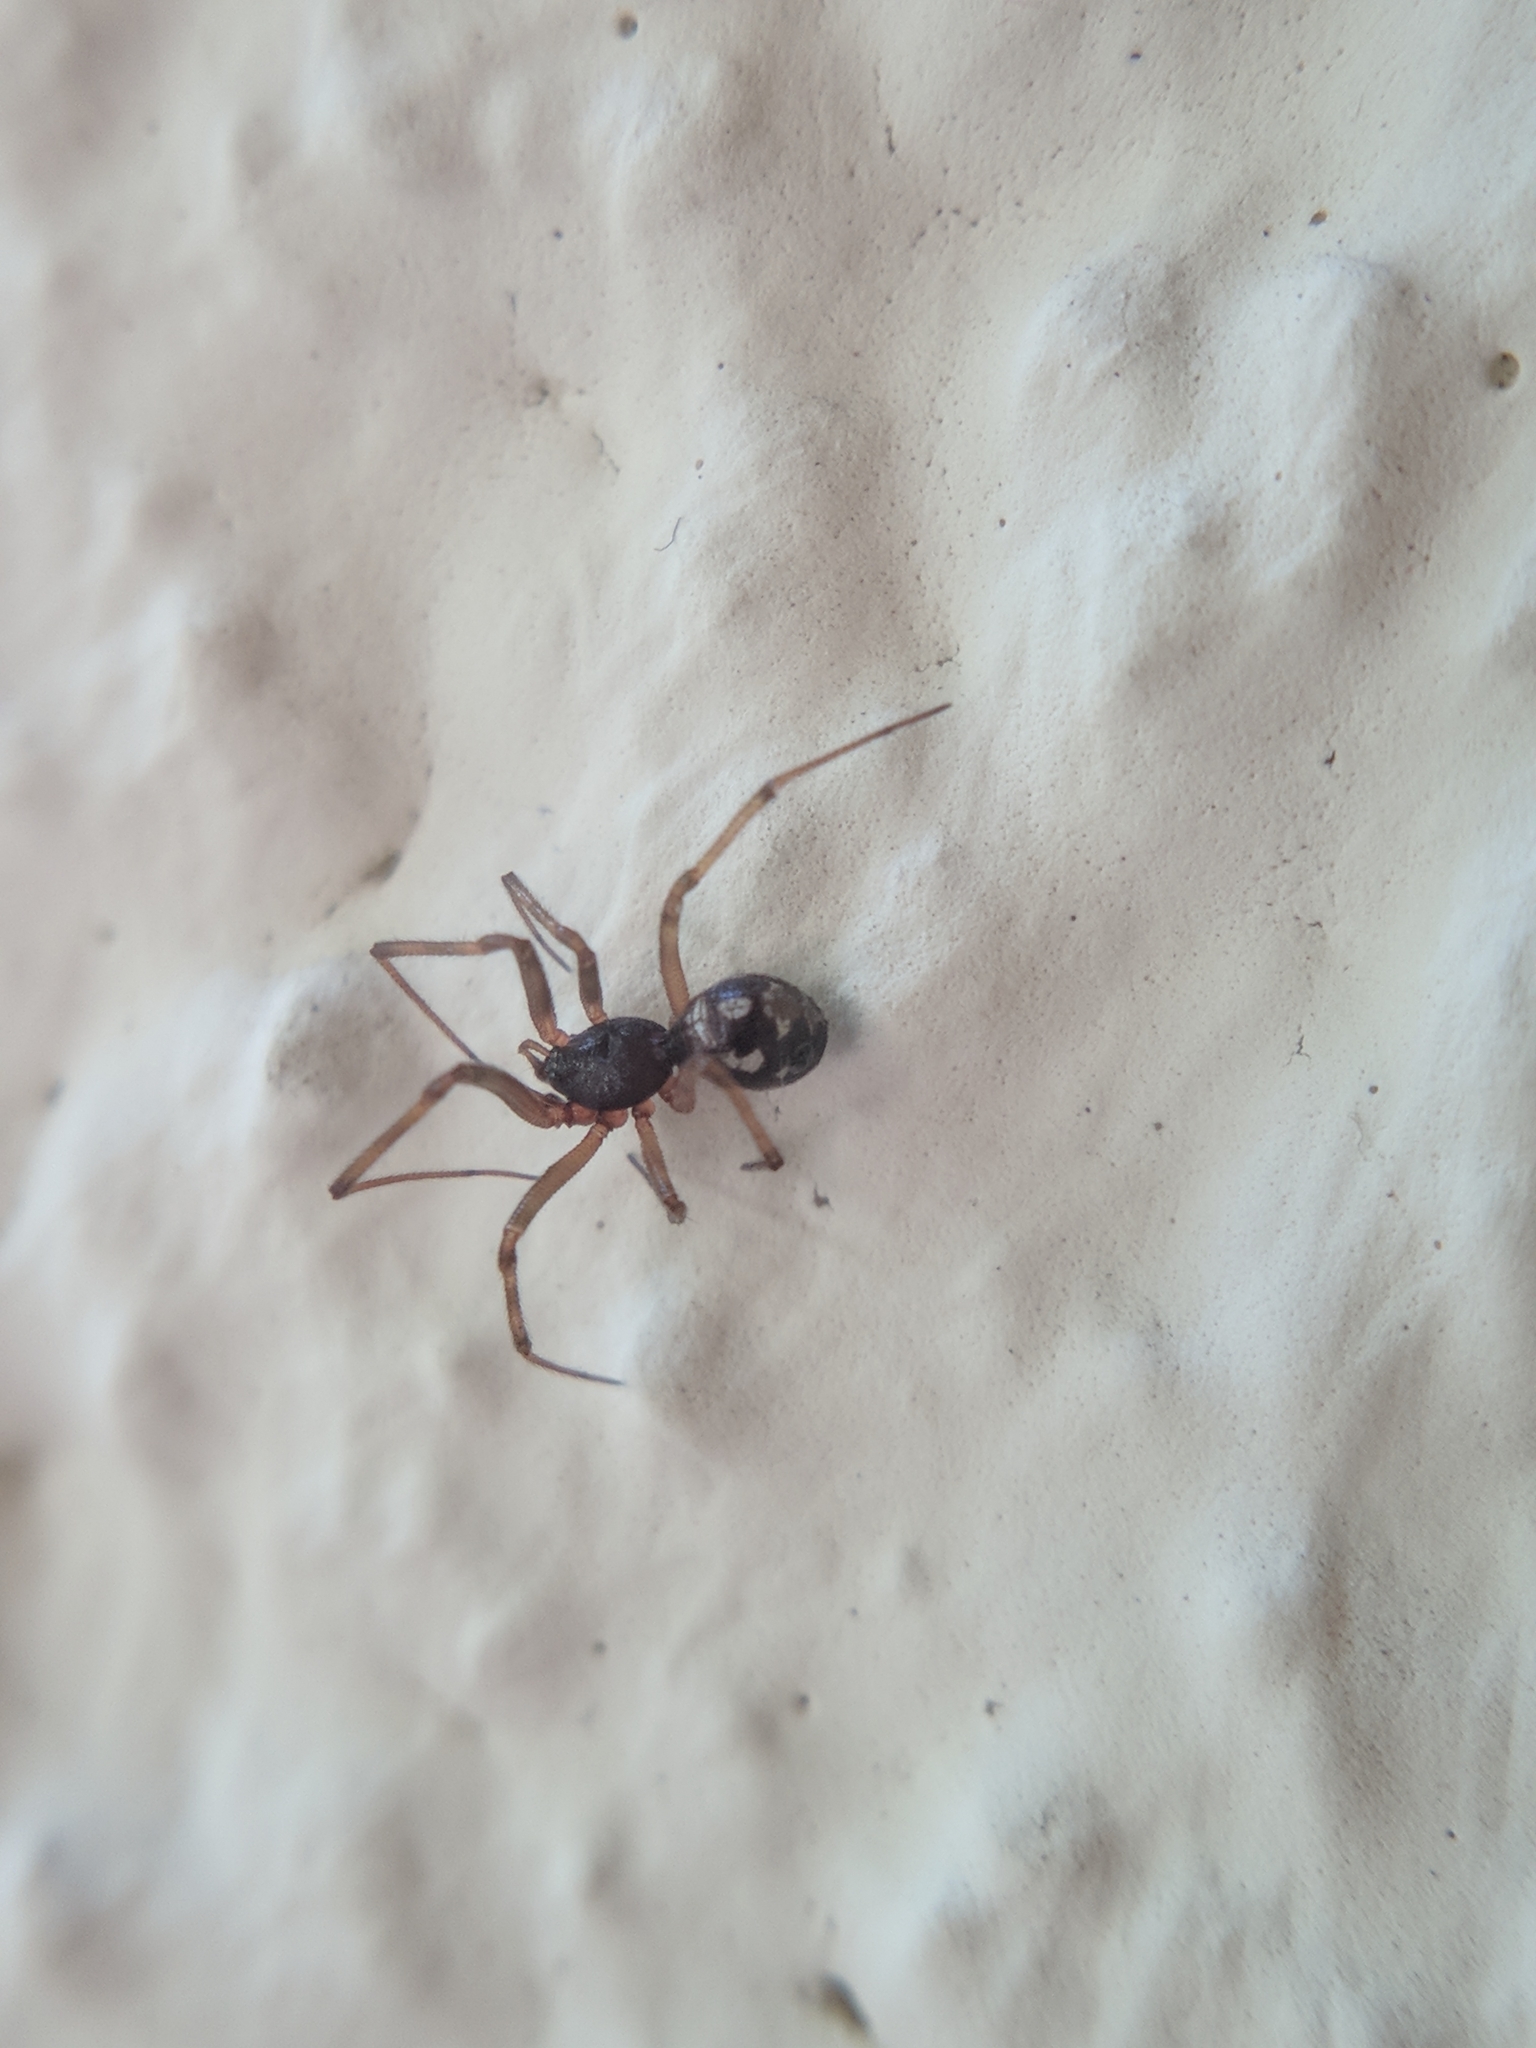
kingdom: Animalia
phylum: Arthropoda
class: Arachnida
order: Araneae
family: Theridiidae
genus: Steatoda
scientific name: Steatoda triangulosa
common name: Triangulate bud spider
